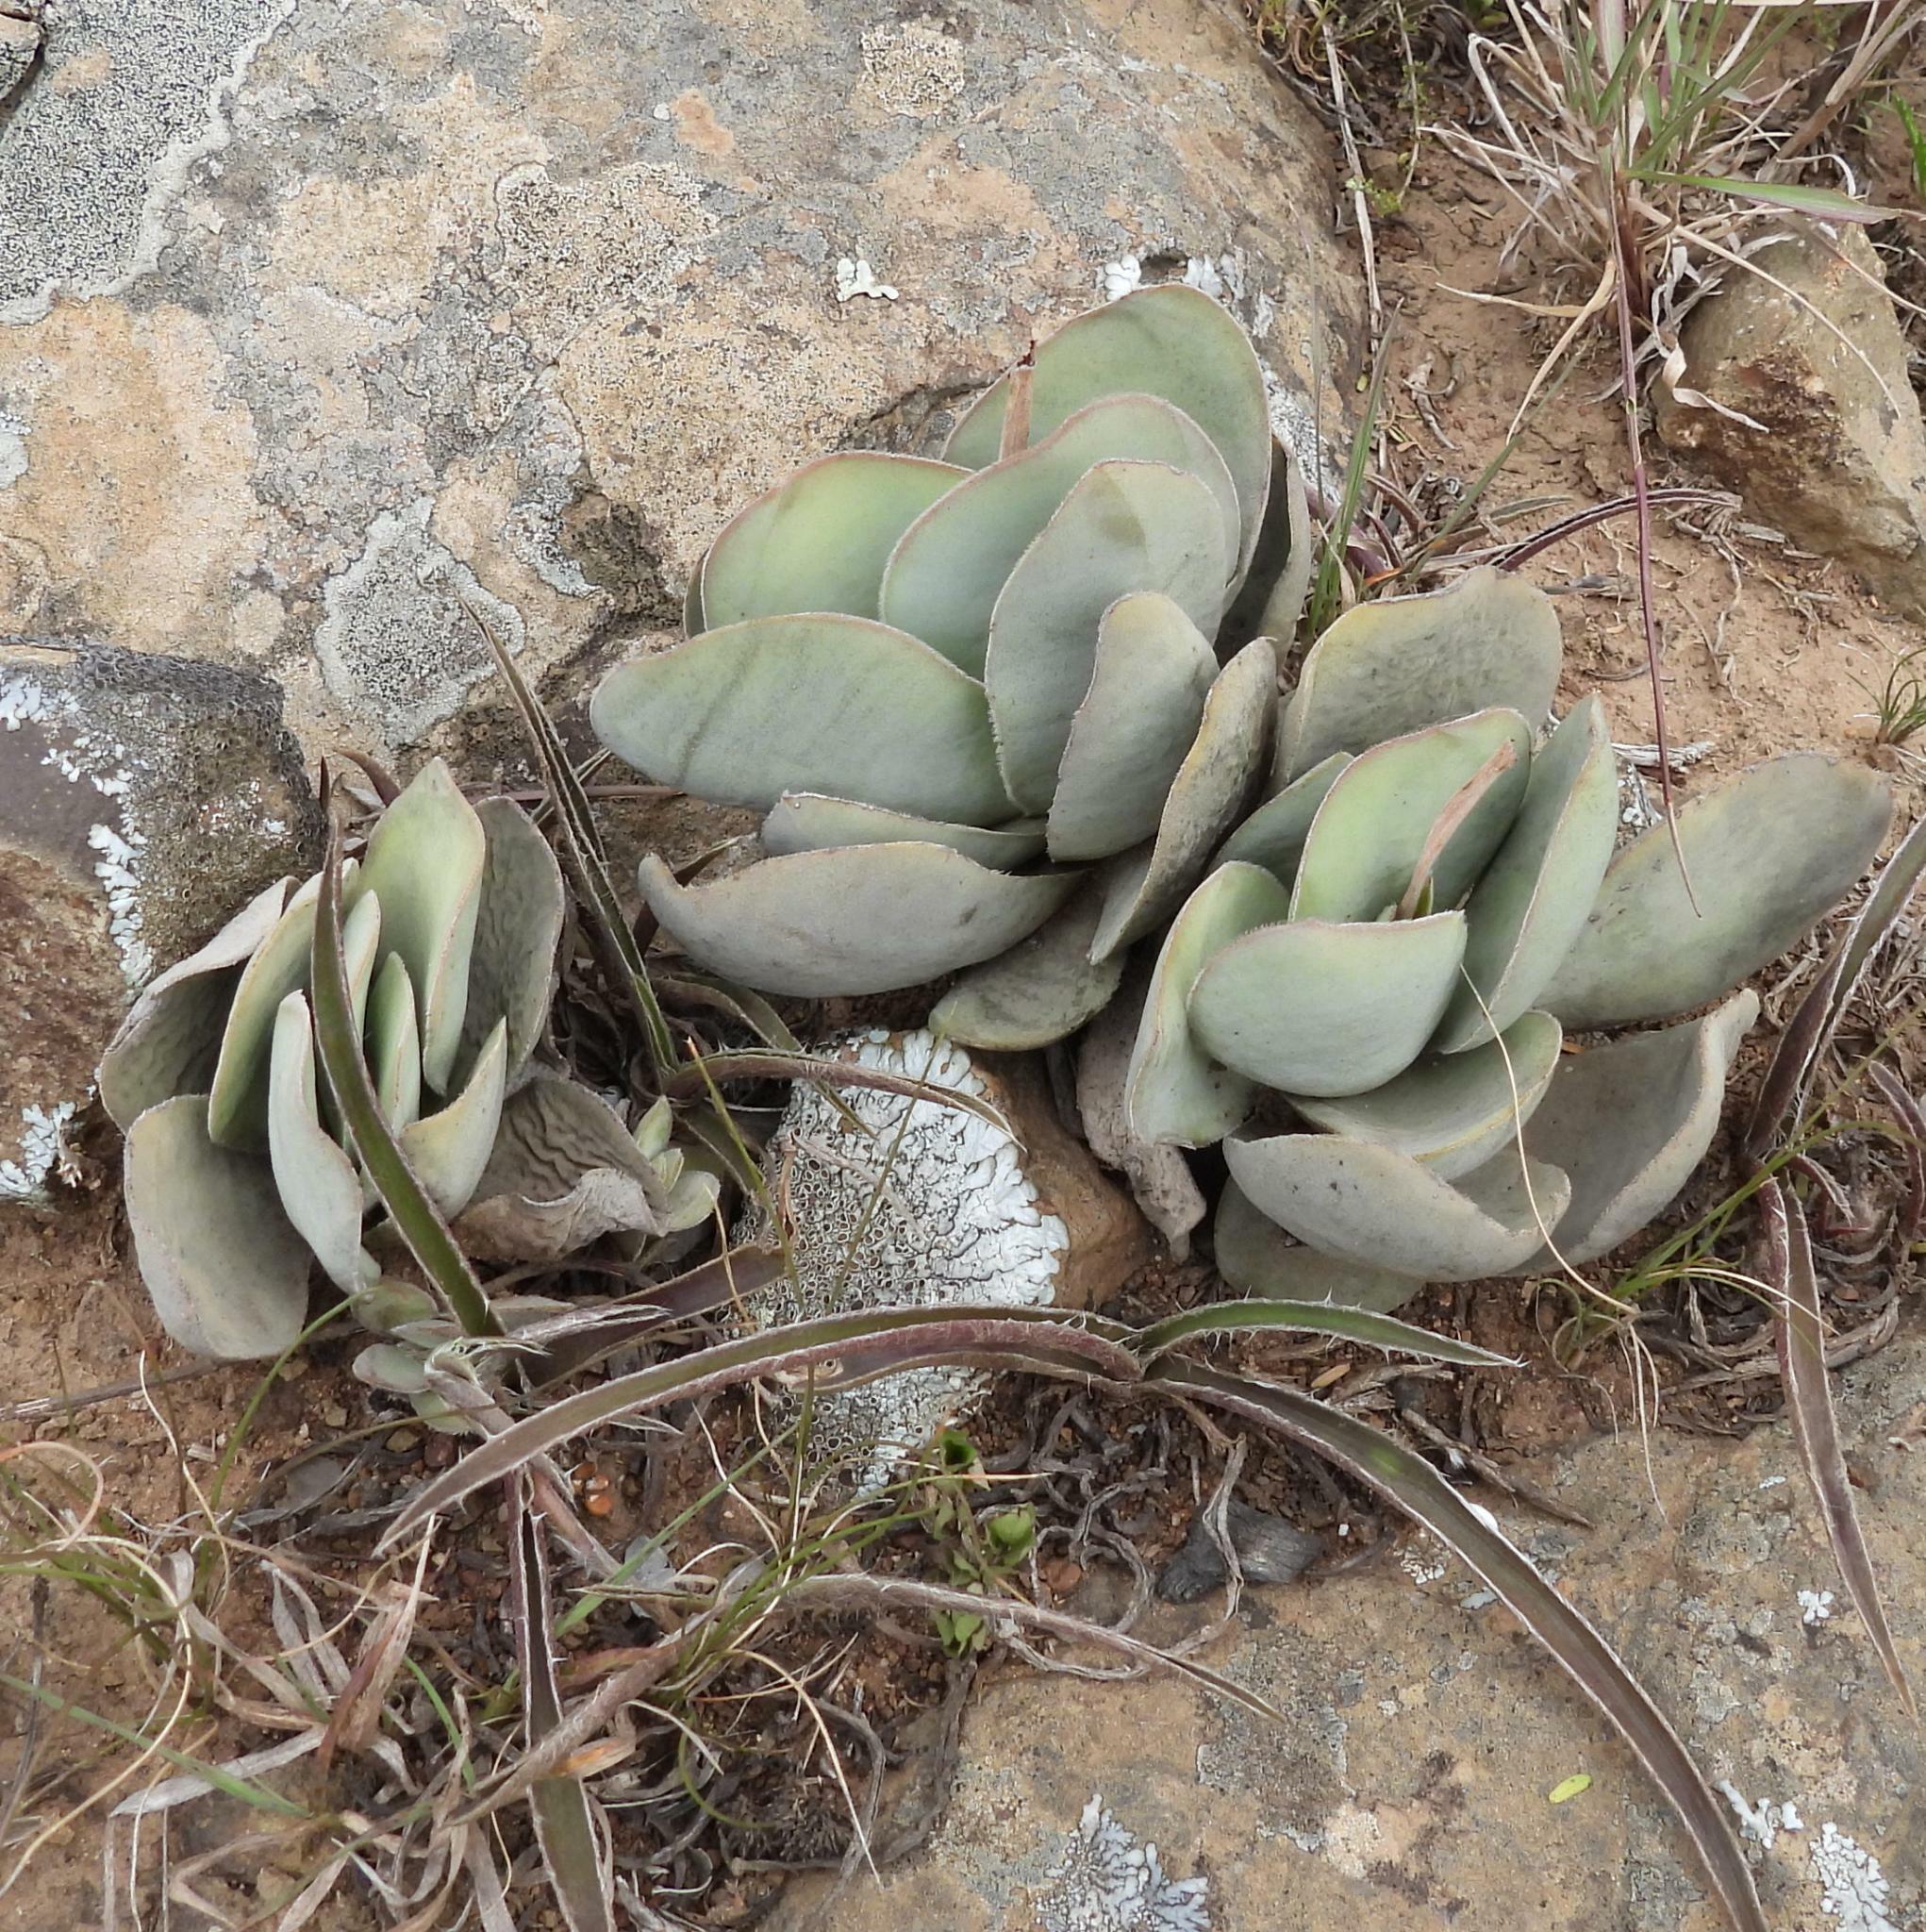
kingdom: Plantae
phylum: Tracheophyta
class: Magnoliopsida
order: Saxifragales
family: Crassulaceae
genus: Crassula
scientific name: Crassula cotyledonis
